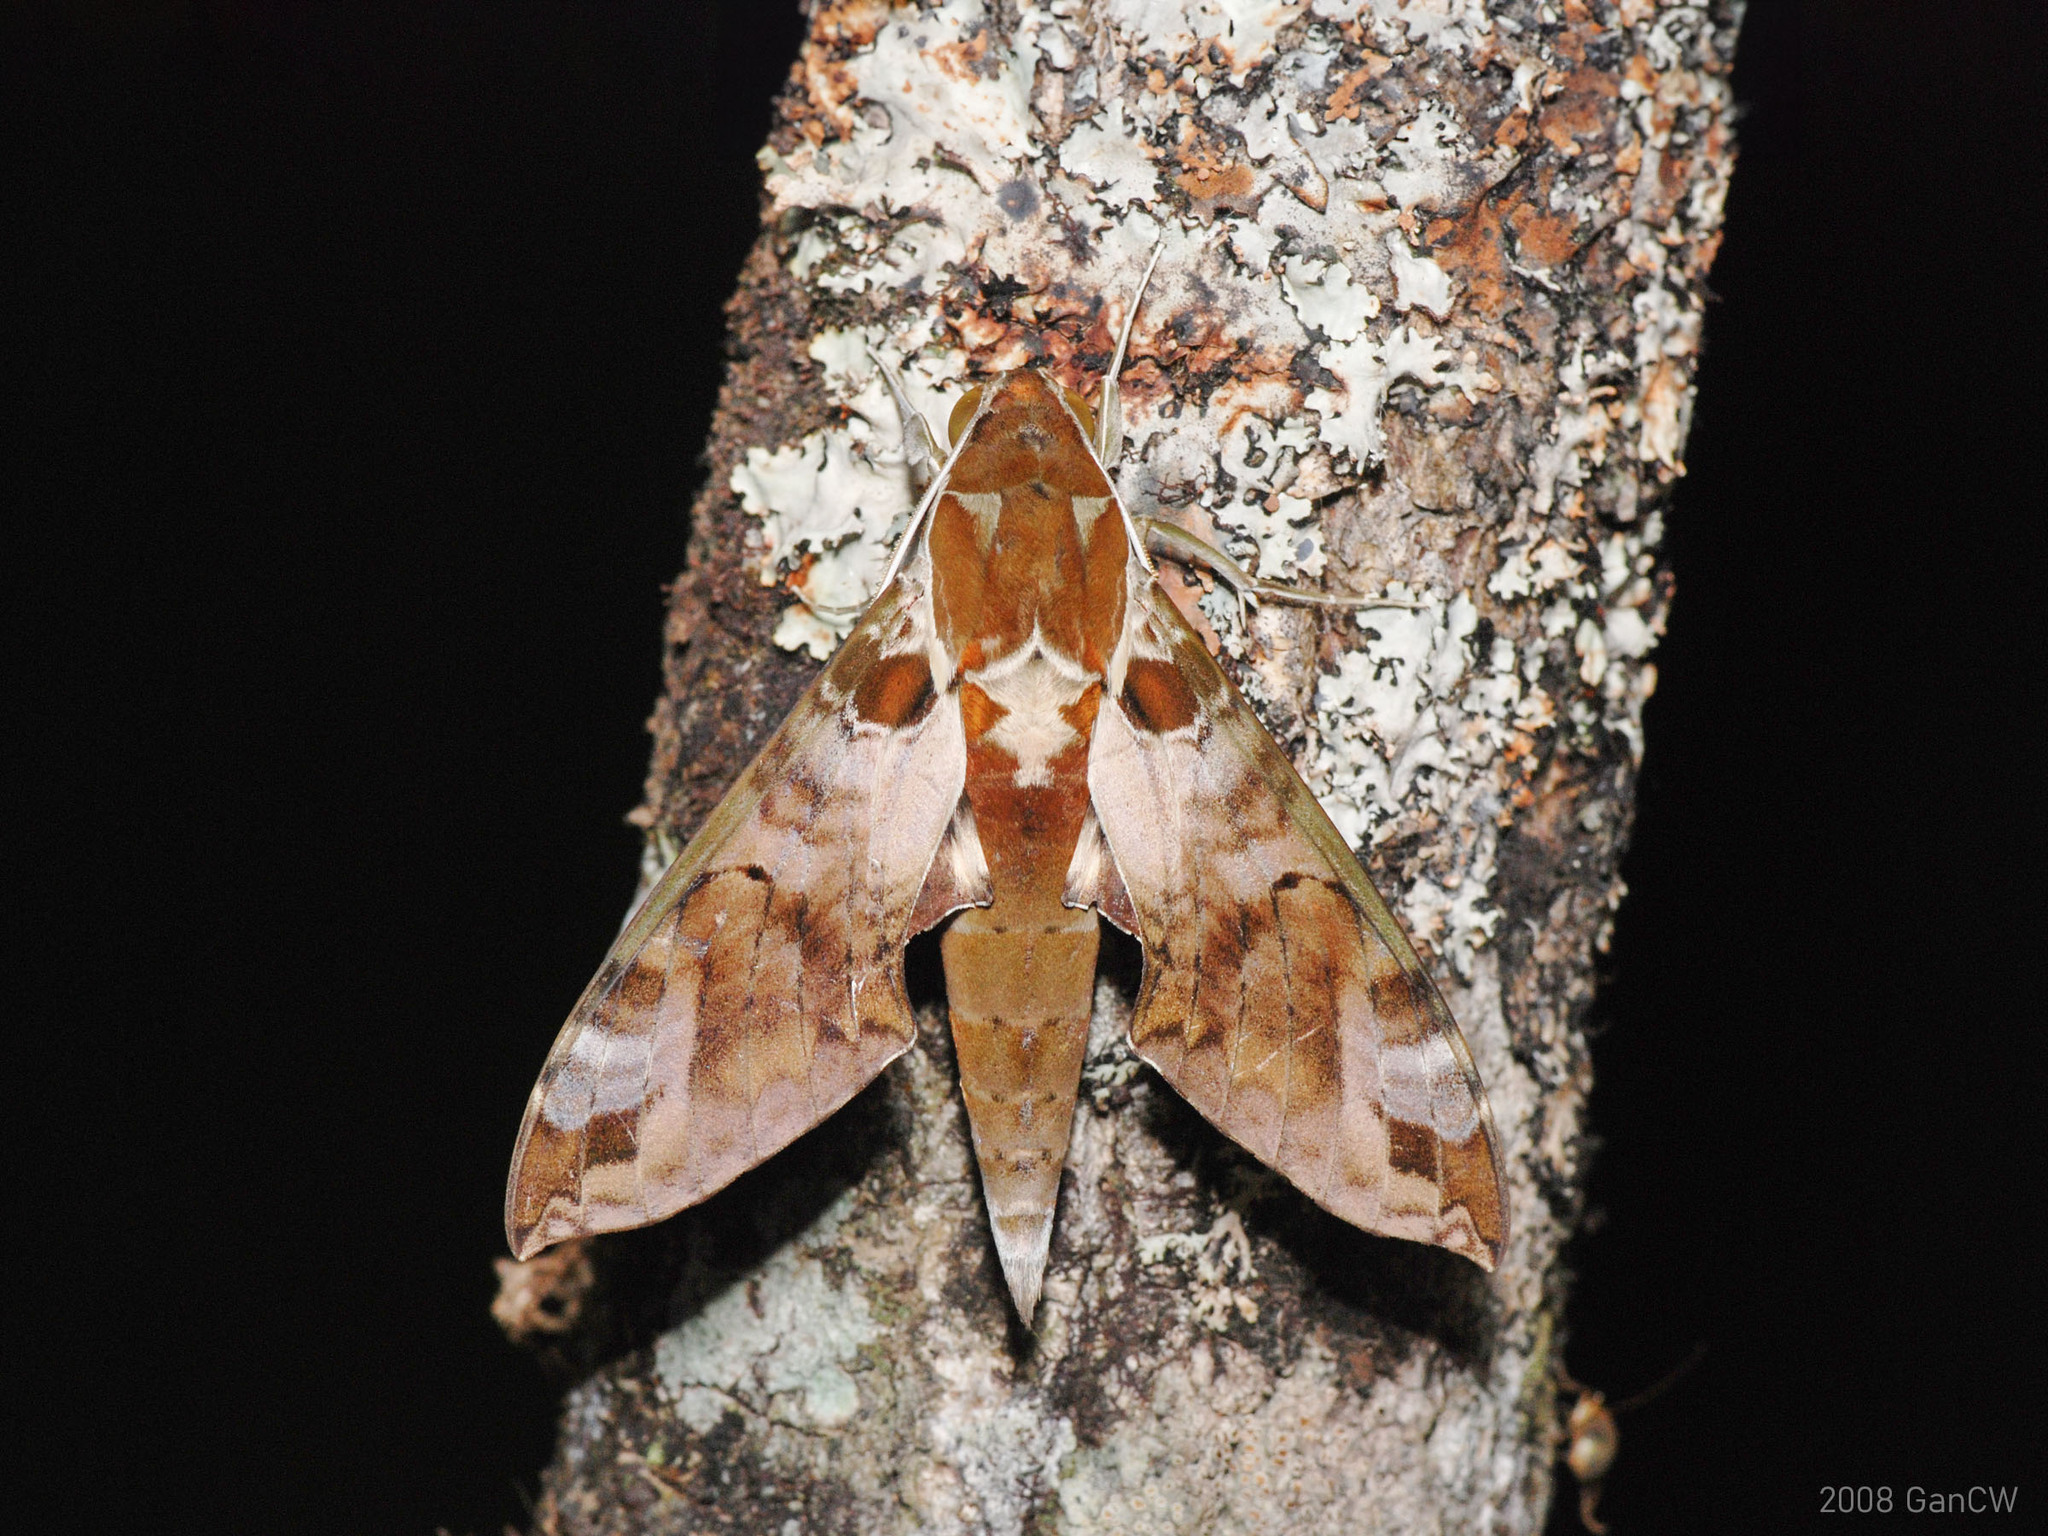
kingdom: Animalia
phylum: Arthropoda
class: Insecta
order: Lepidoptera
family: Sphingidae
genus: Cechenena
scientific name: Cechenena helops
